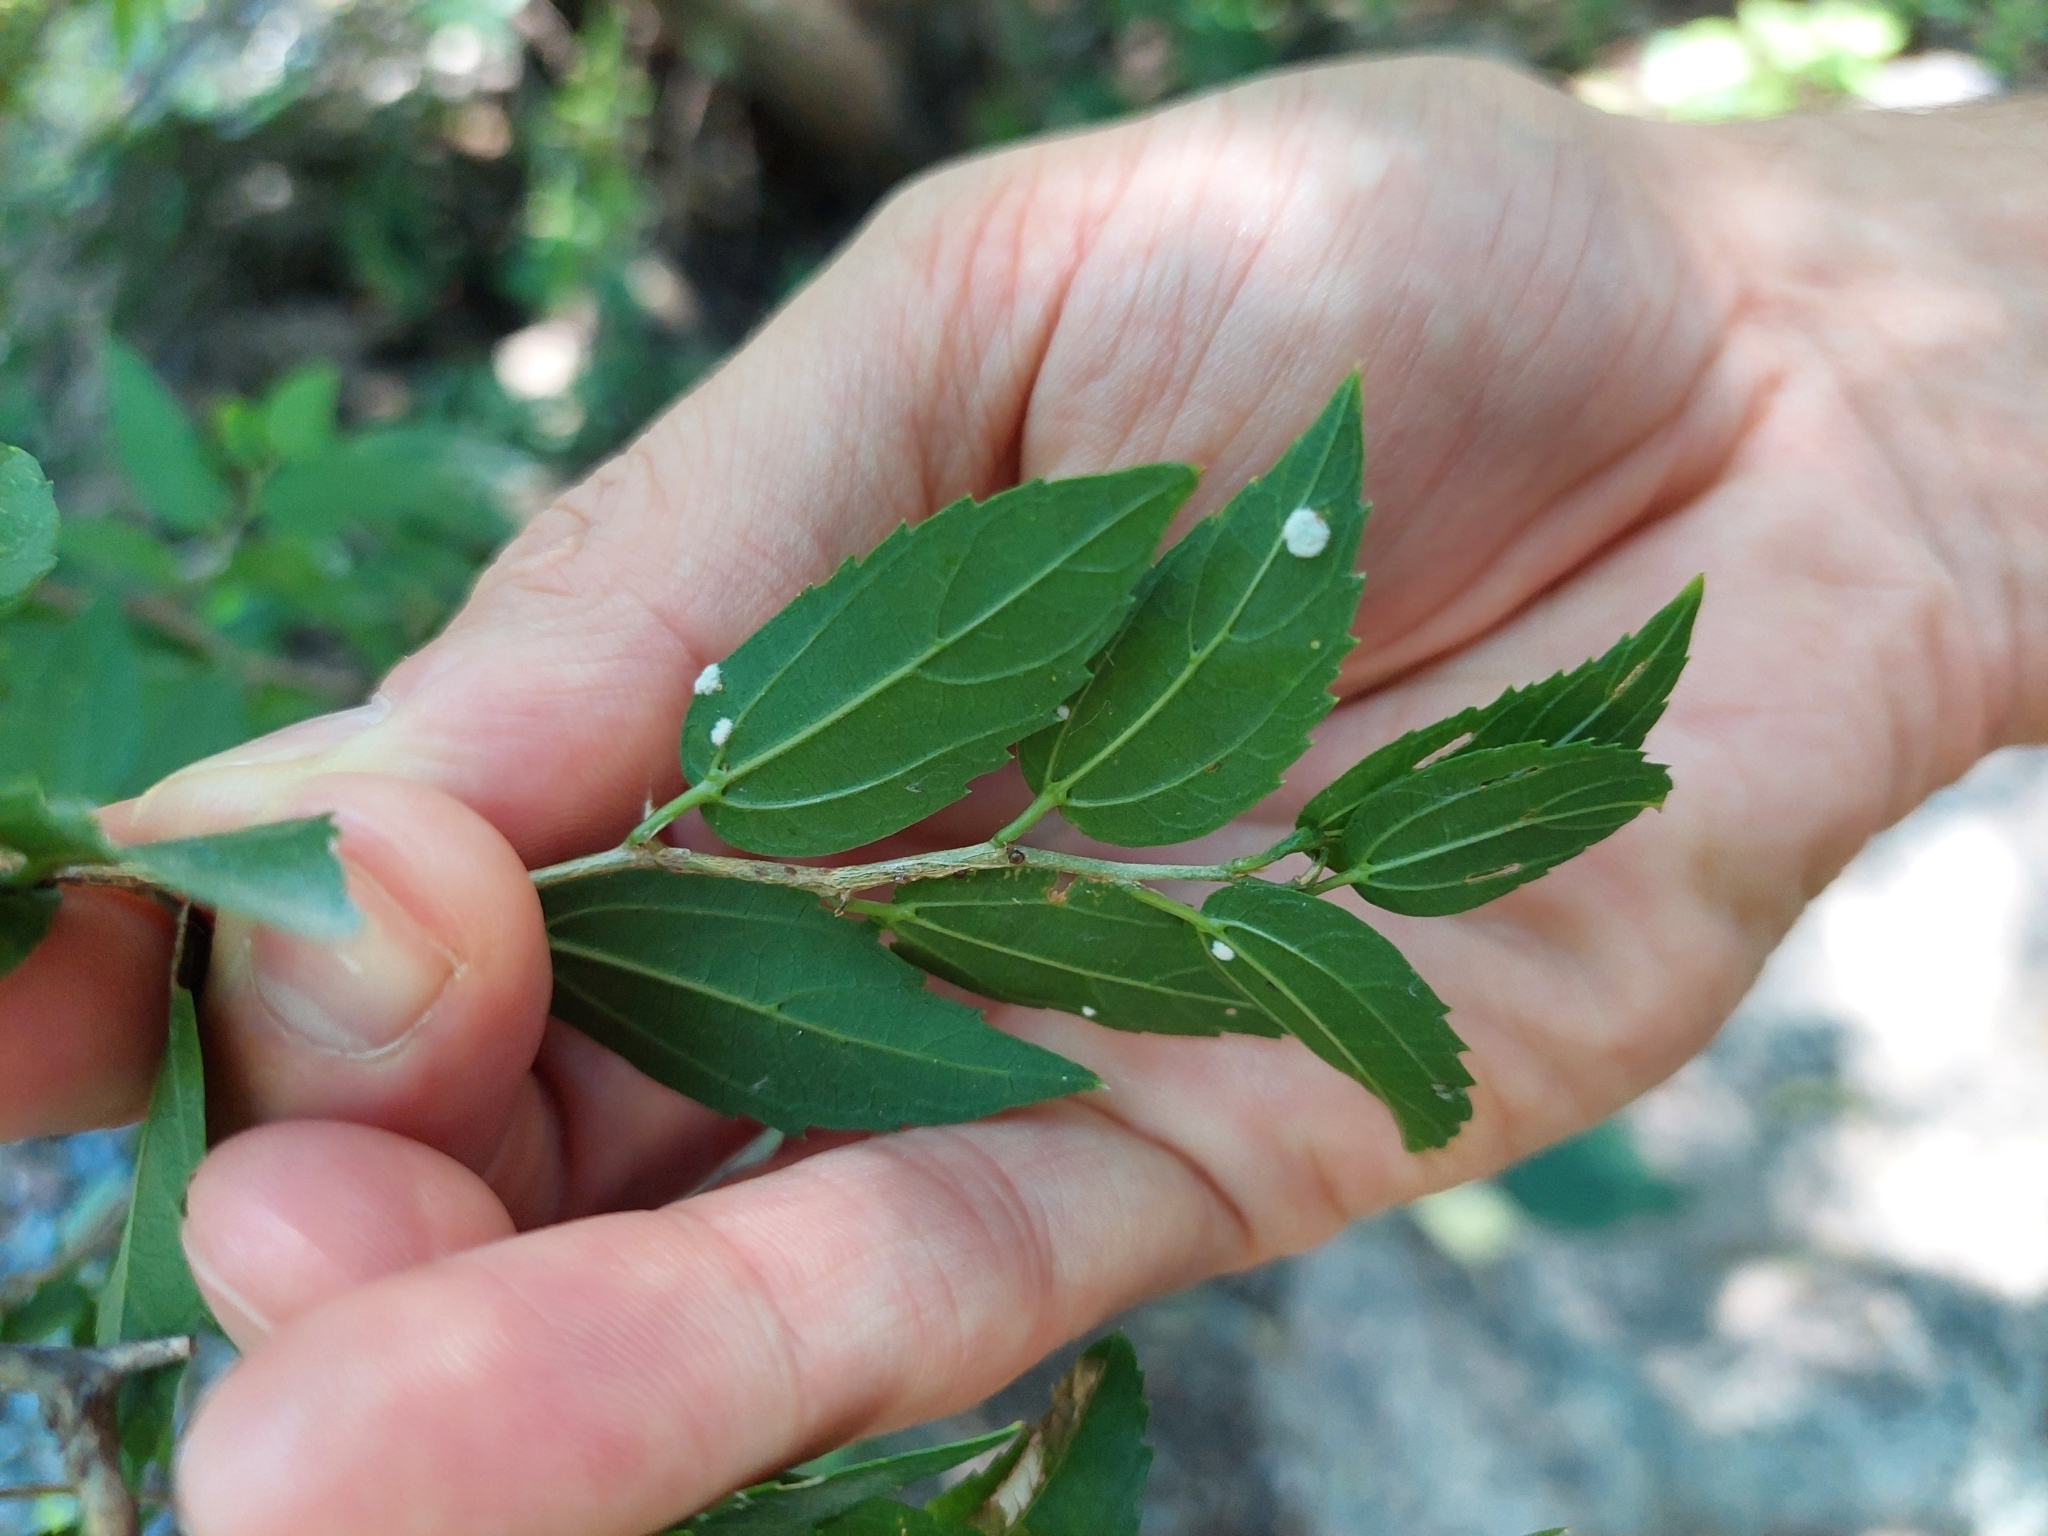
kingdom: Plantae
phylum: Tracheophyta
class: Magnoliopsida
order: Rosales
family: Cannabaceae
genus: Celtis
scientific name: Celtis tala
